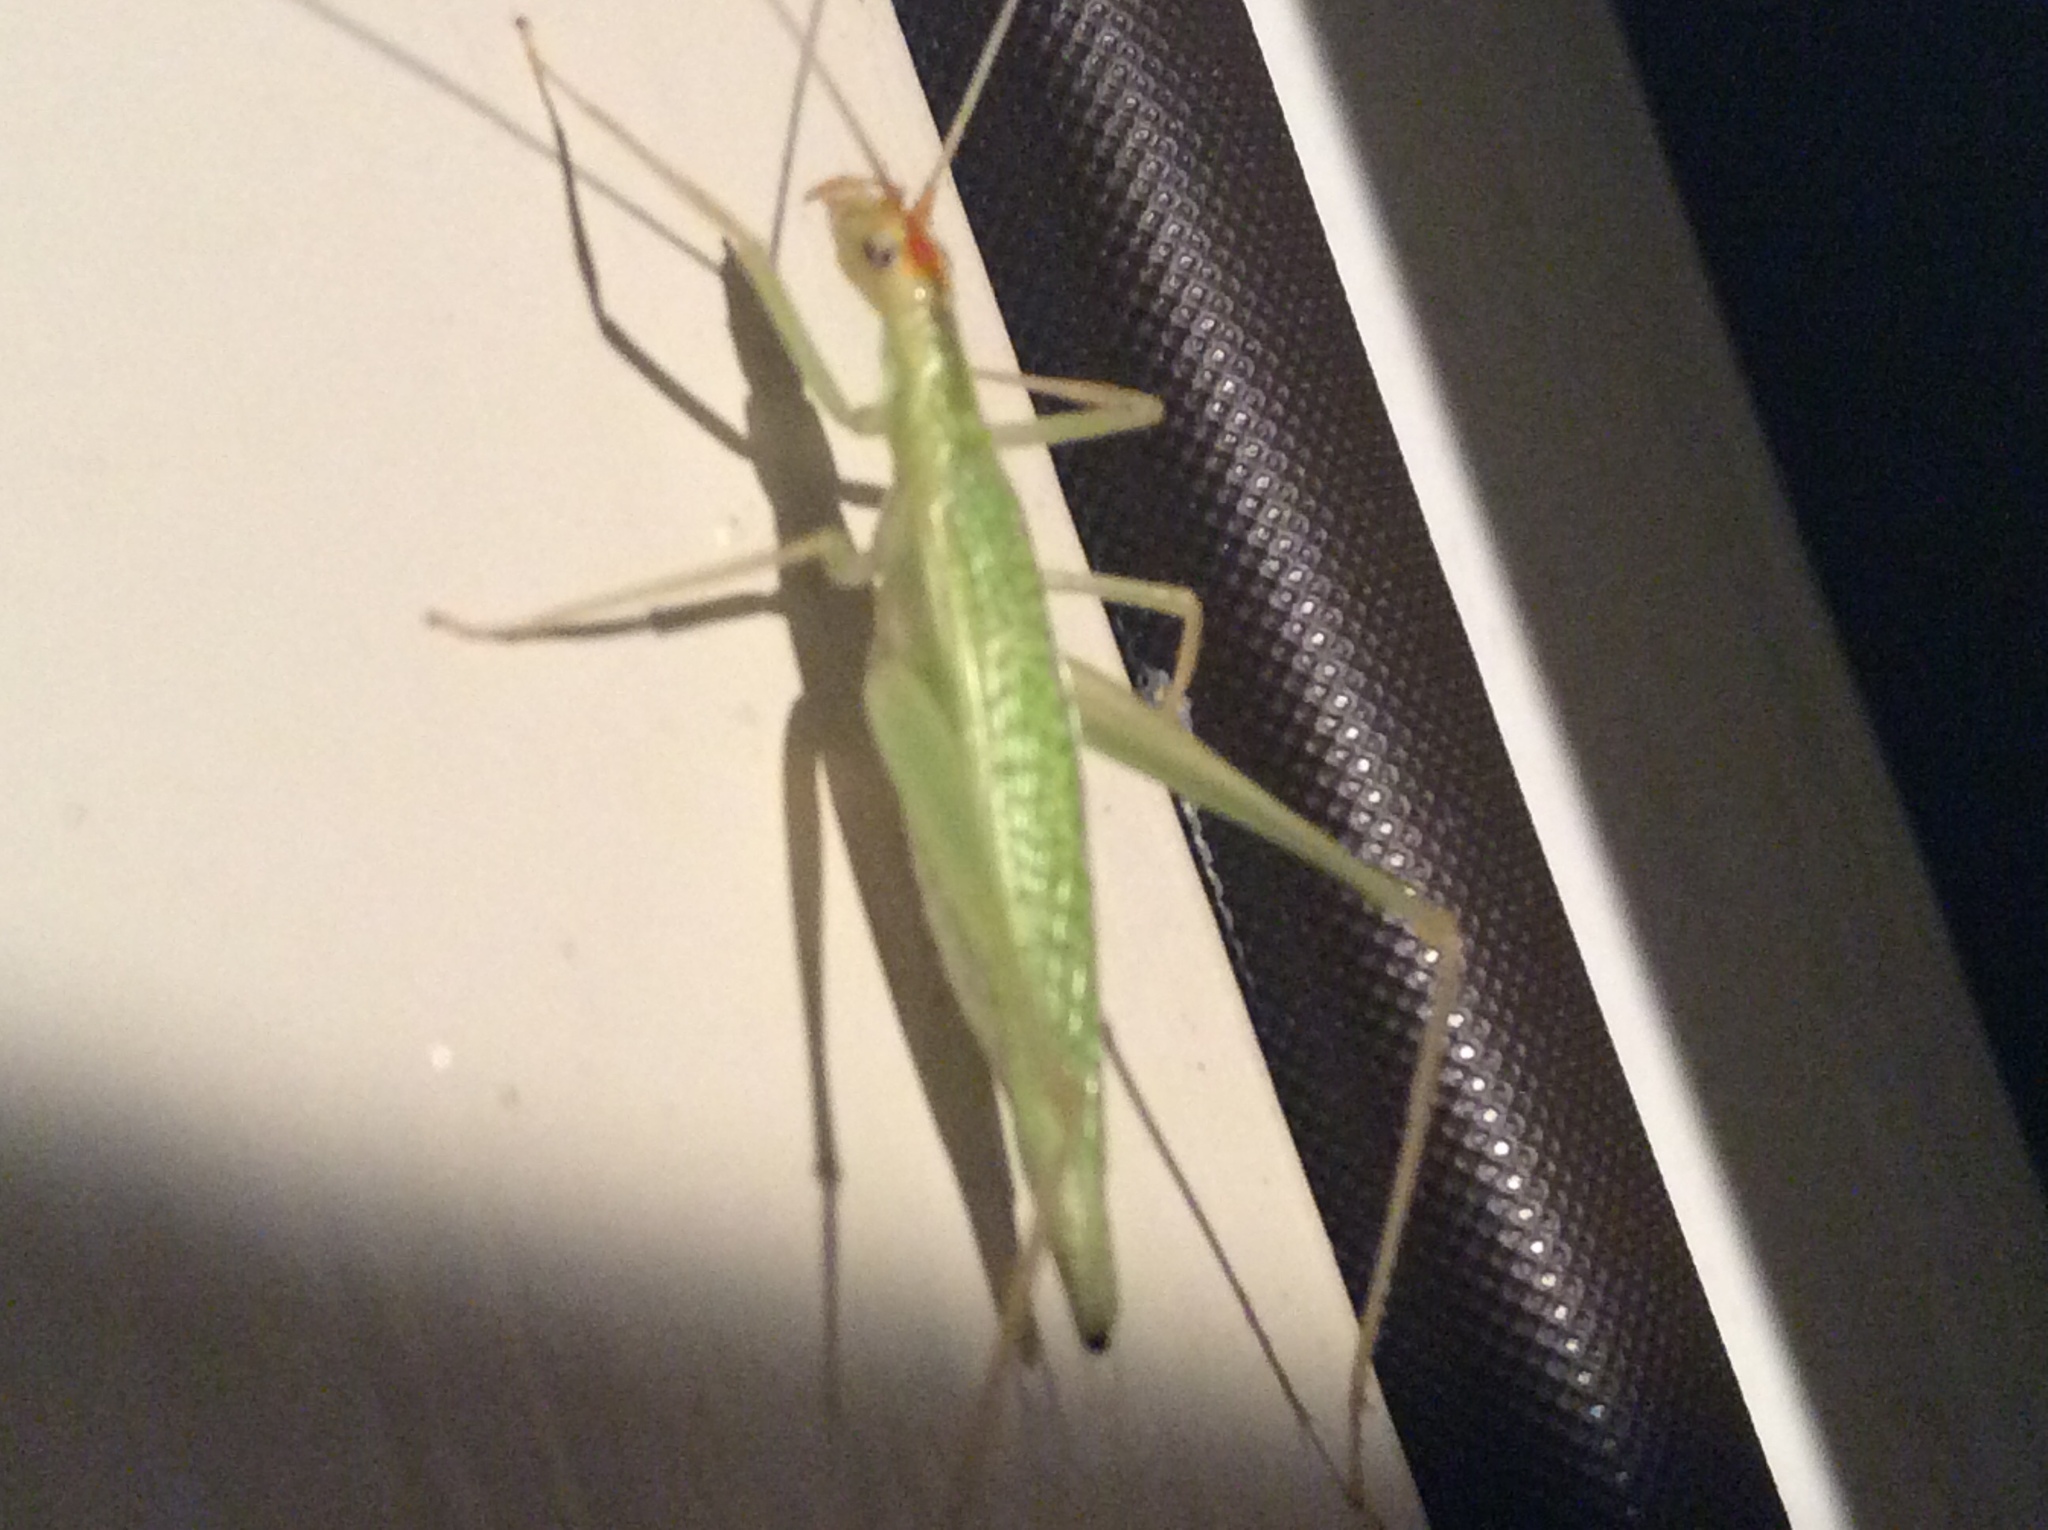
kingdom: Animalia
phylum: Arthropoda
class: Insecta
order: Orthoptera
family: Gryllidae
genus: Oecanthus
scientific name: Oecanthus niveus
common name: Narrow-winged tree cricket
